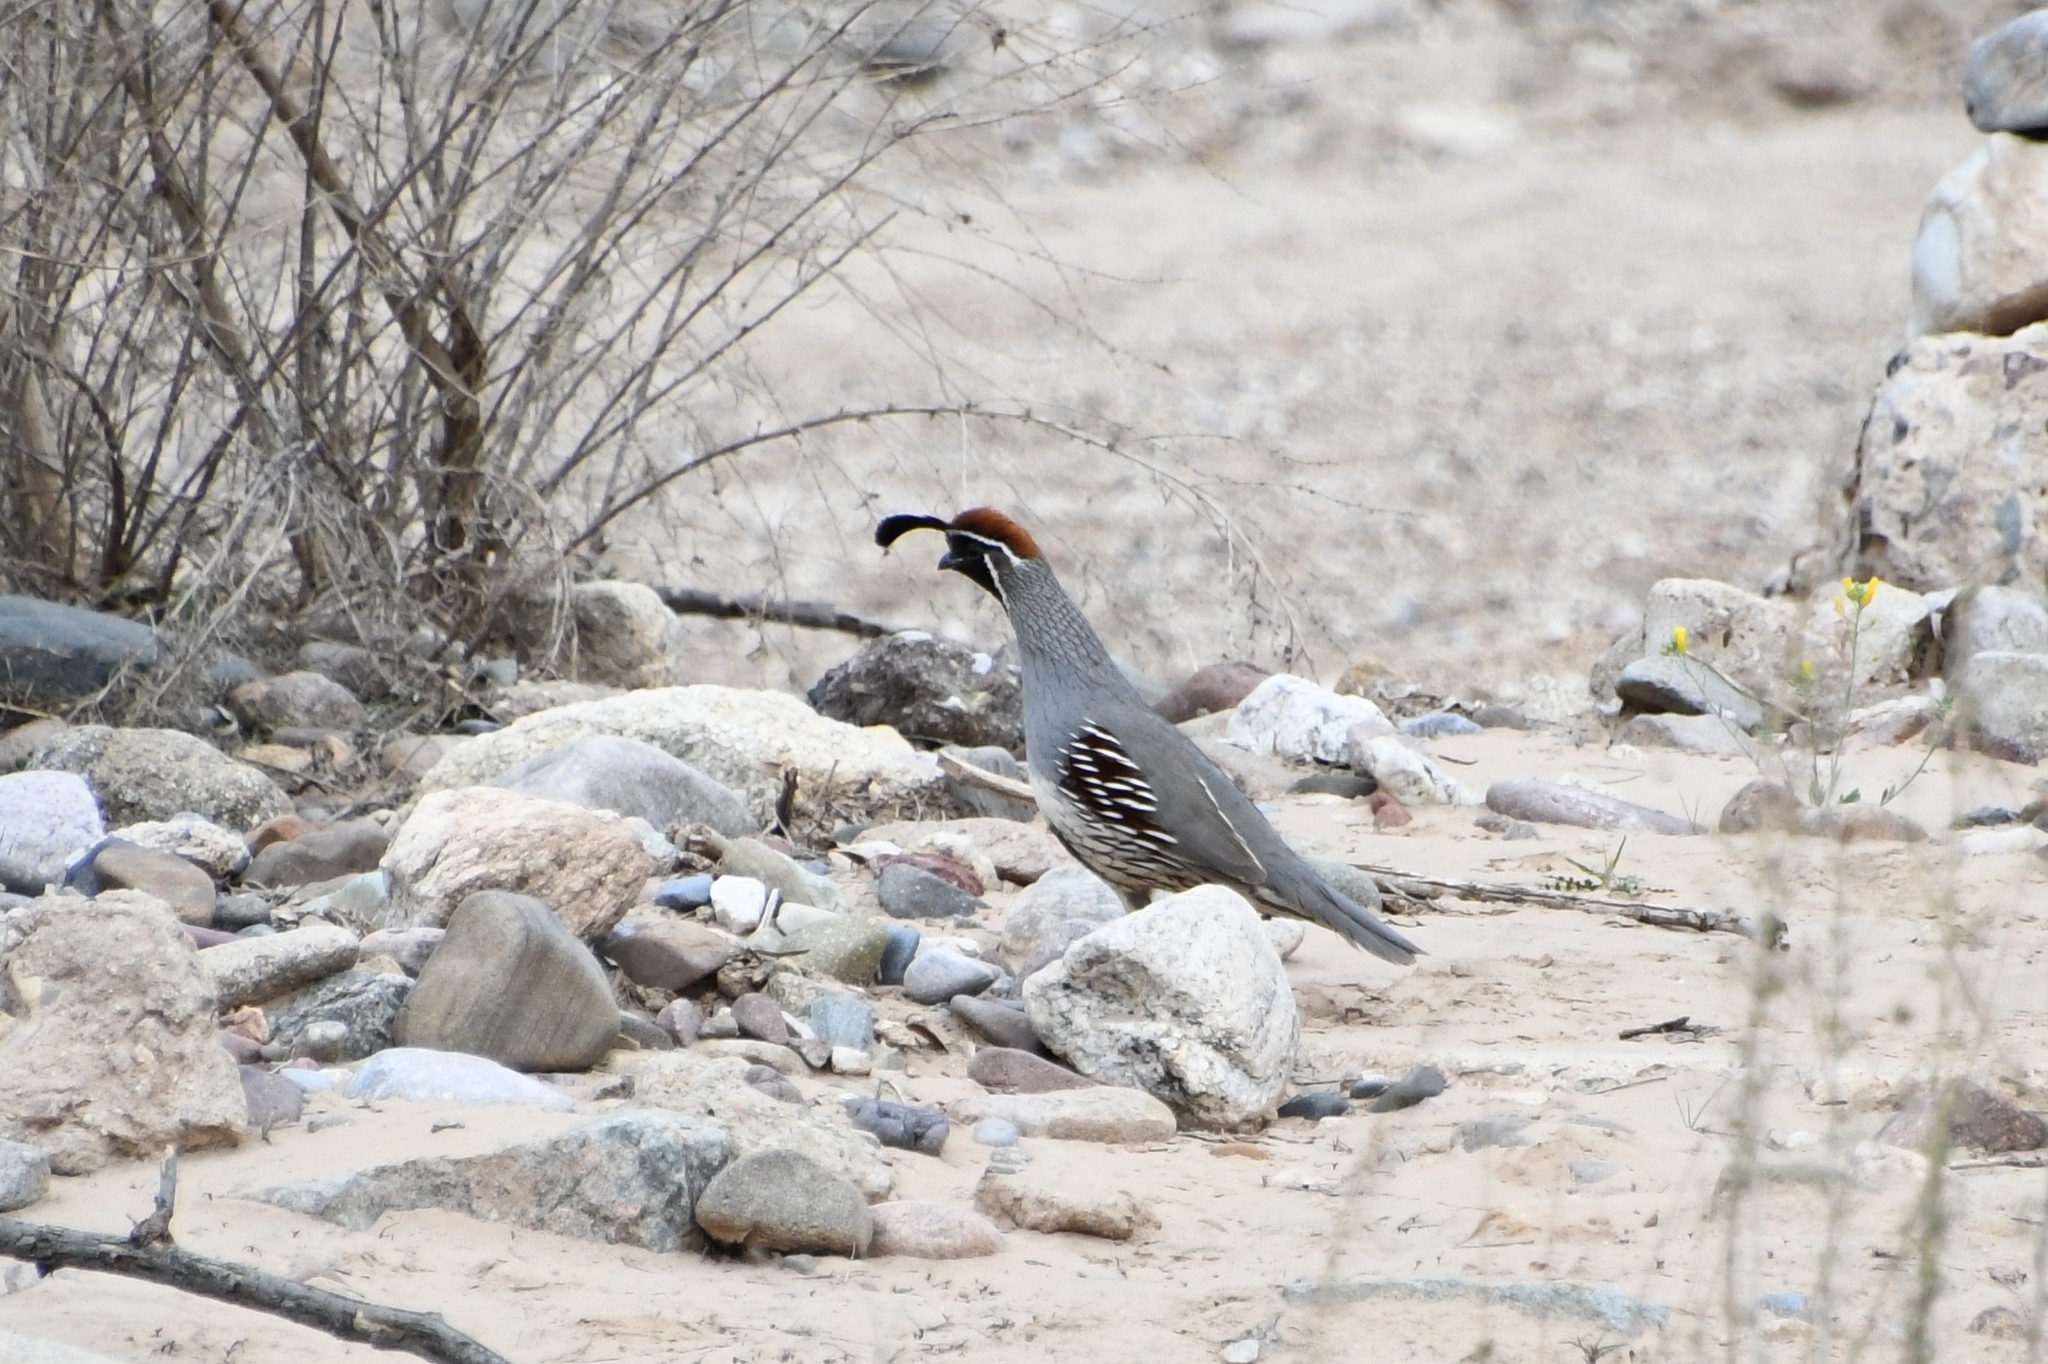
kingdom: Animalia
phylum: Chordata
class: Aves
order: Galliformes
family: Odontophoridae
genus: Callipepla
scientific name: Callipepla gambelii
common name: Gambel's quail
